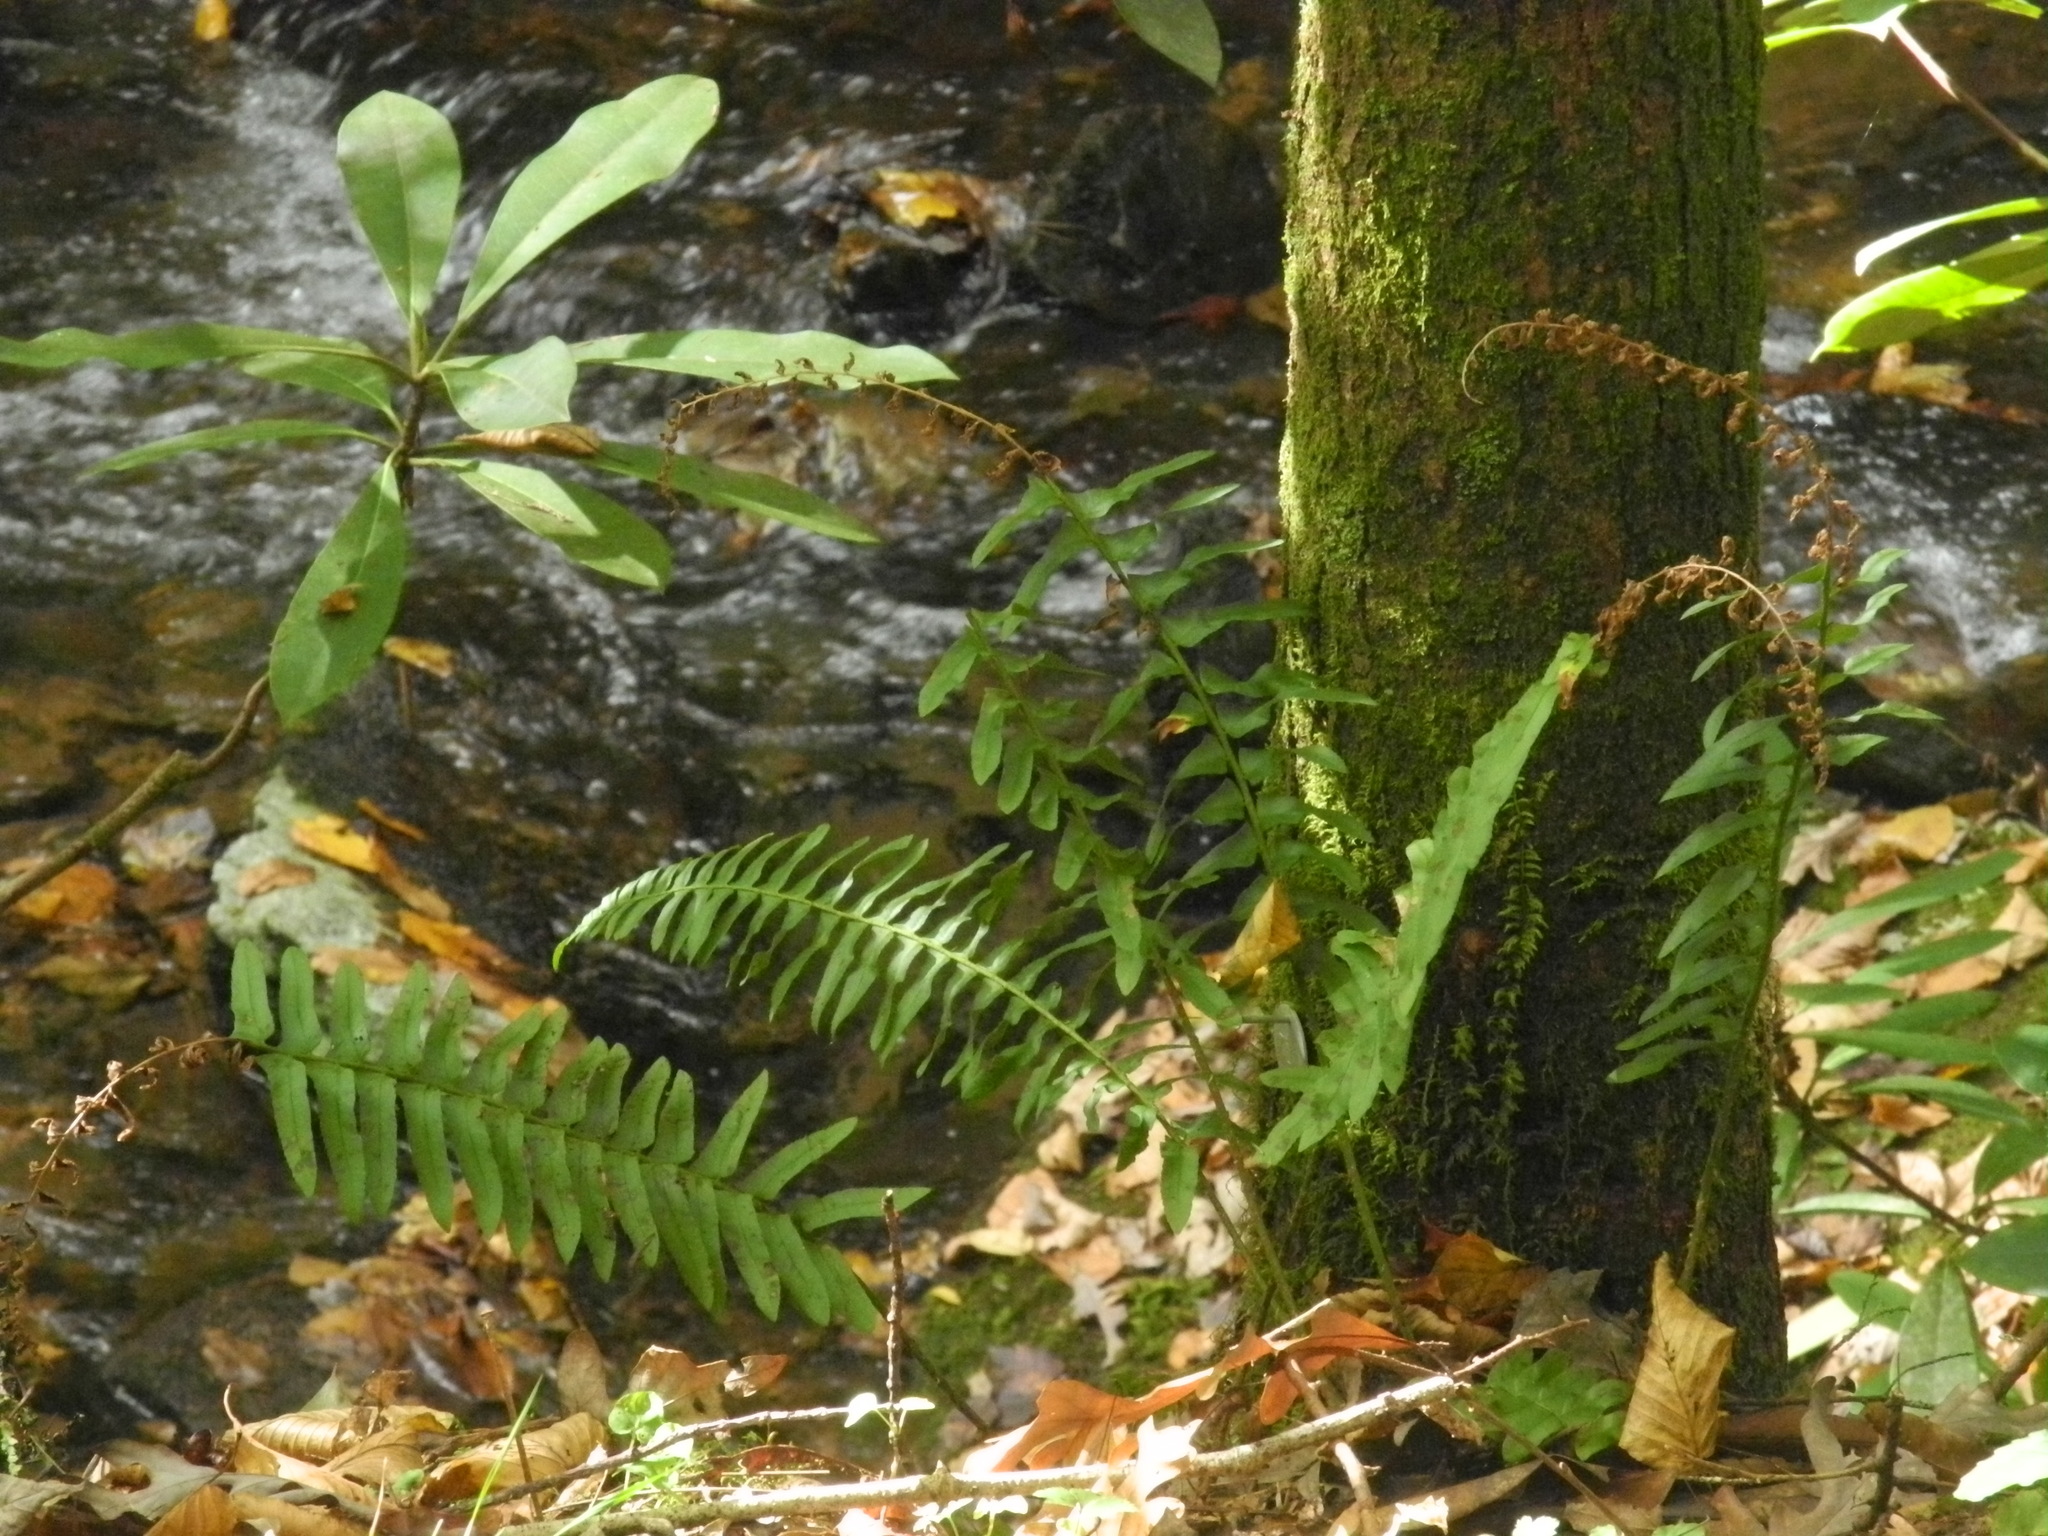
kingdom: Plantae
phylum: Tracheophyta
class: Polypodiopsida
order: Polypodiales
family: Dryopteridaceae
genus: Polystichum
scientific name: Polystichum acrostichoides
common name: Christmas fern
